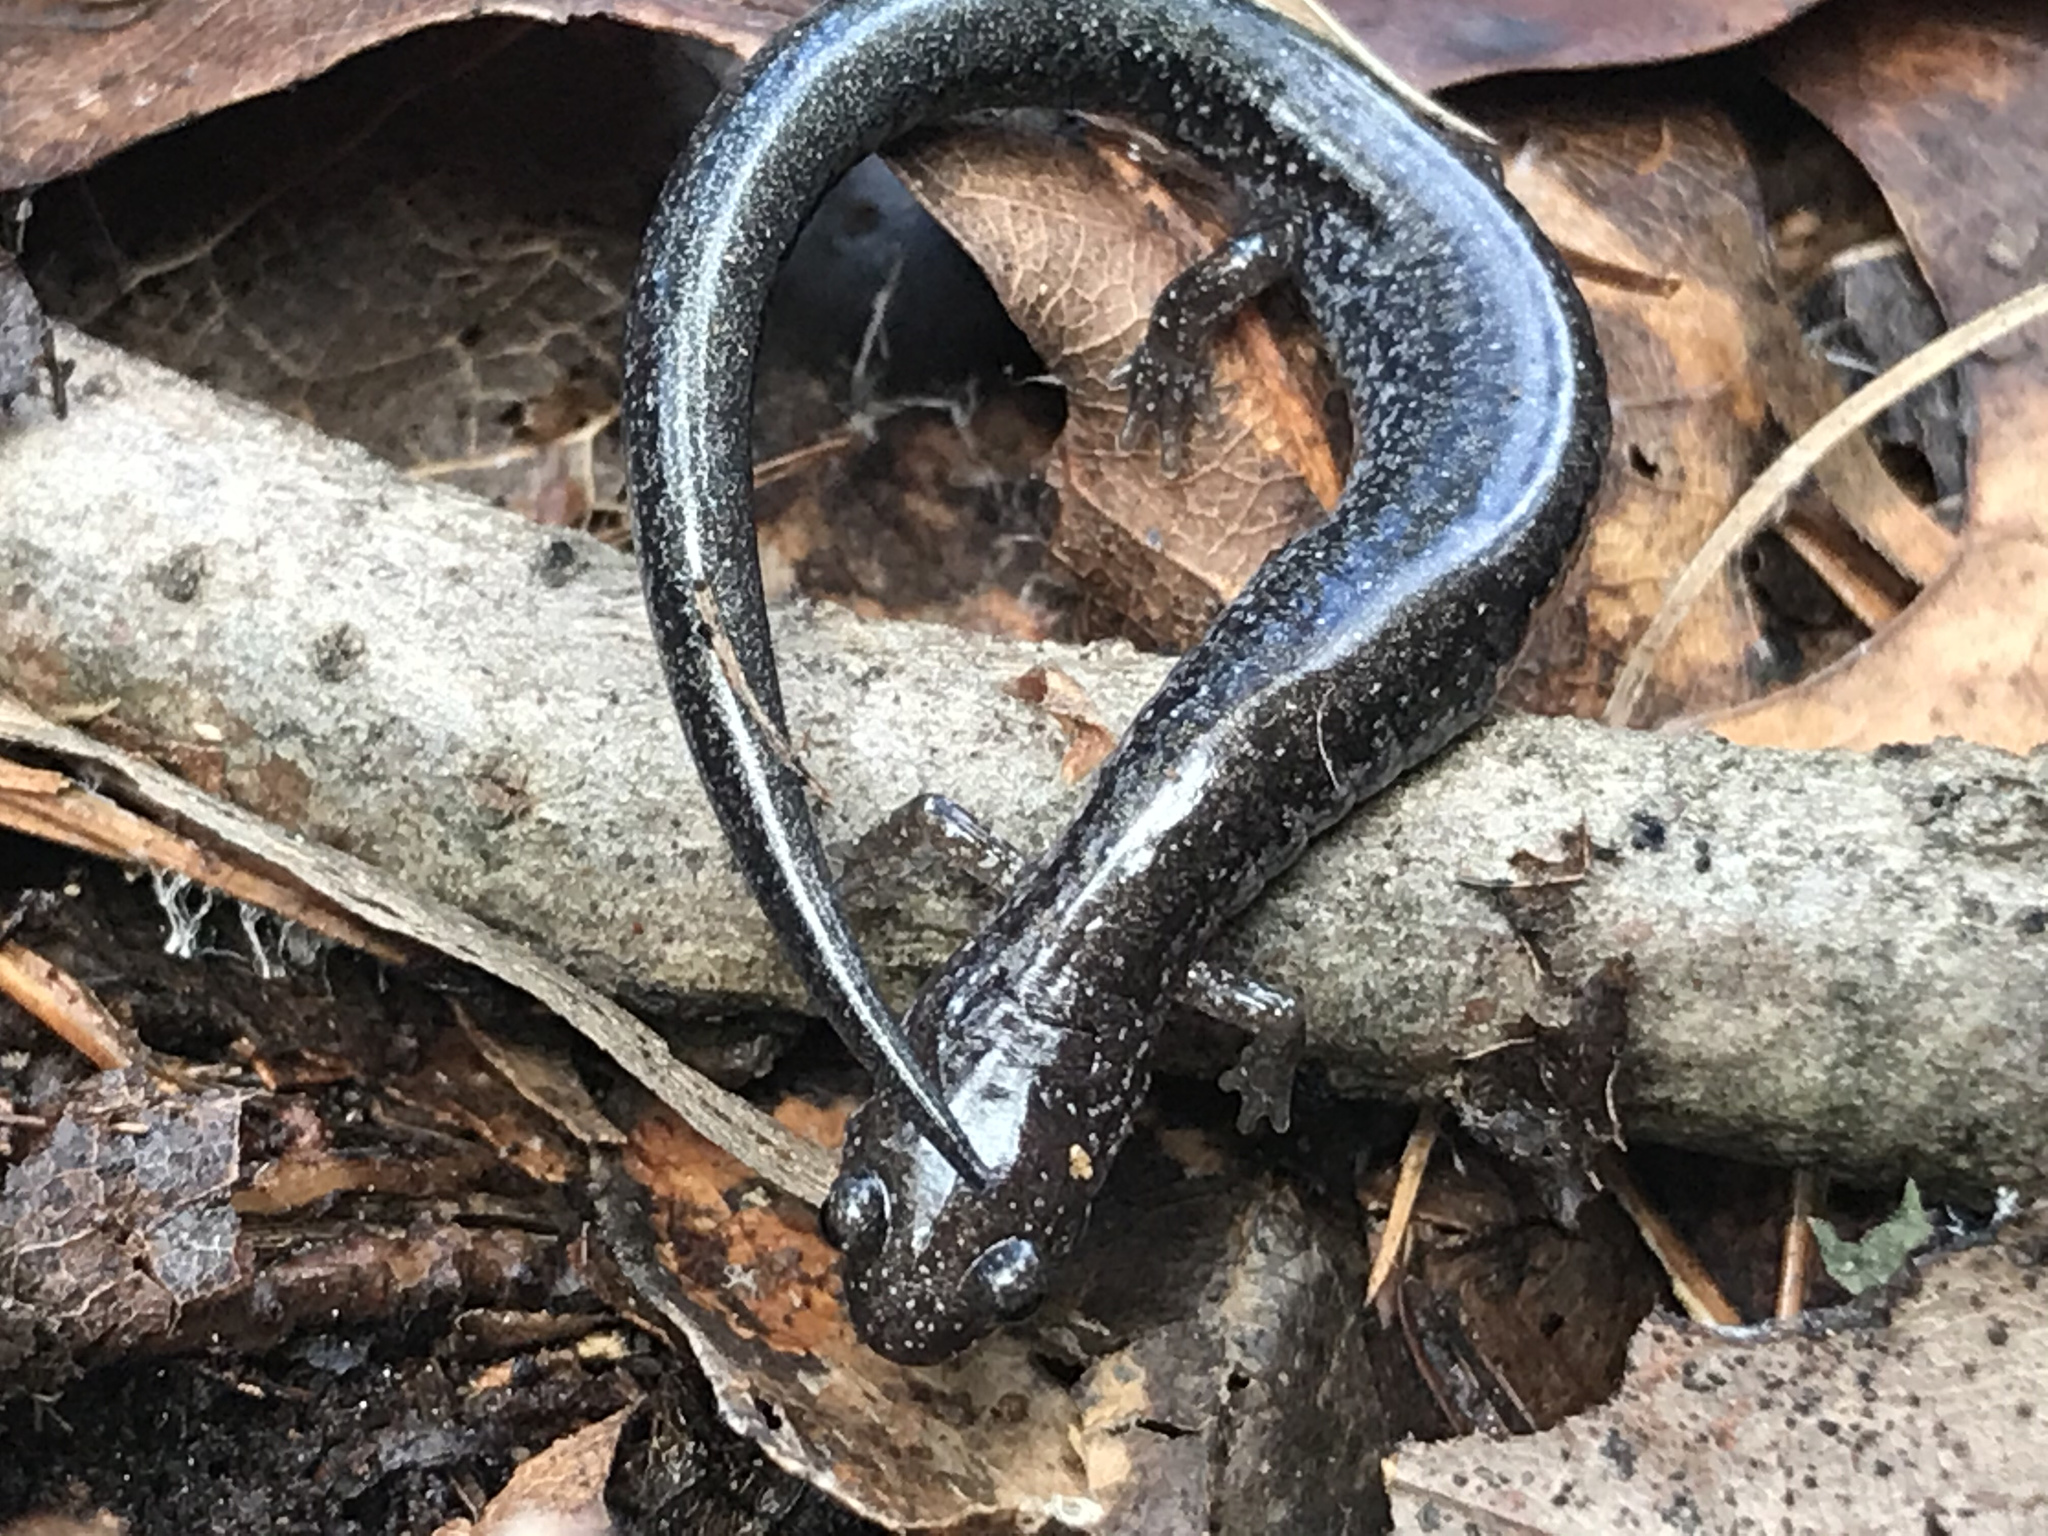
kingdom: Animalia
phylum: Chordata
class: Amphibia
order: Caudata
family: Plethodontidae
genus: Plethodon
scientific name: Plethodon cinereus
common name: Redback salamander
